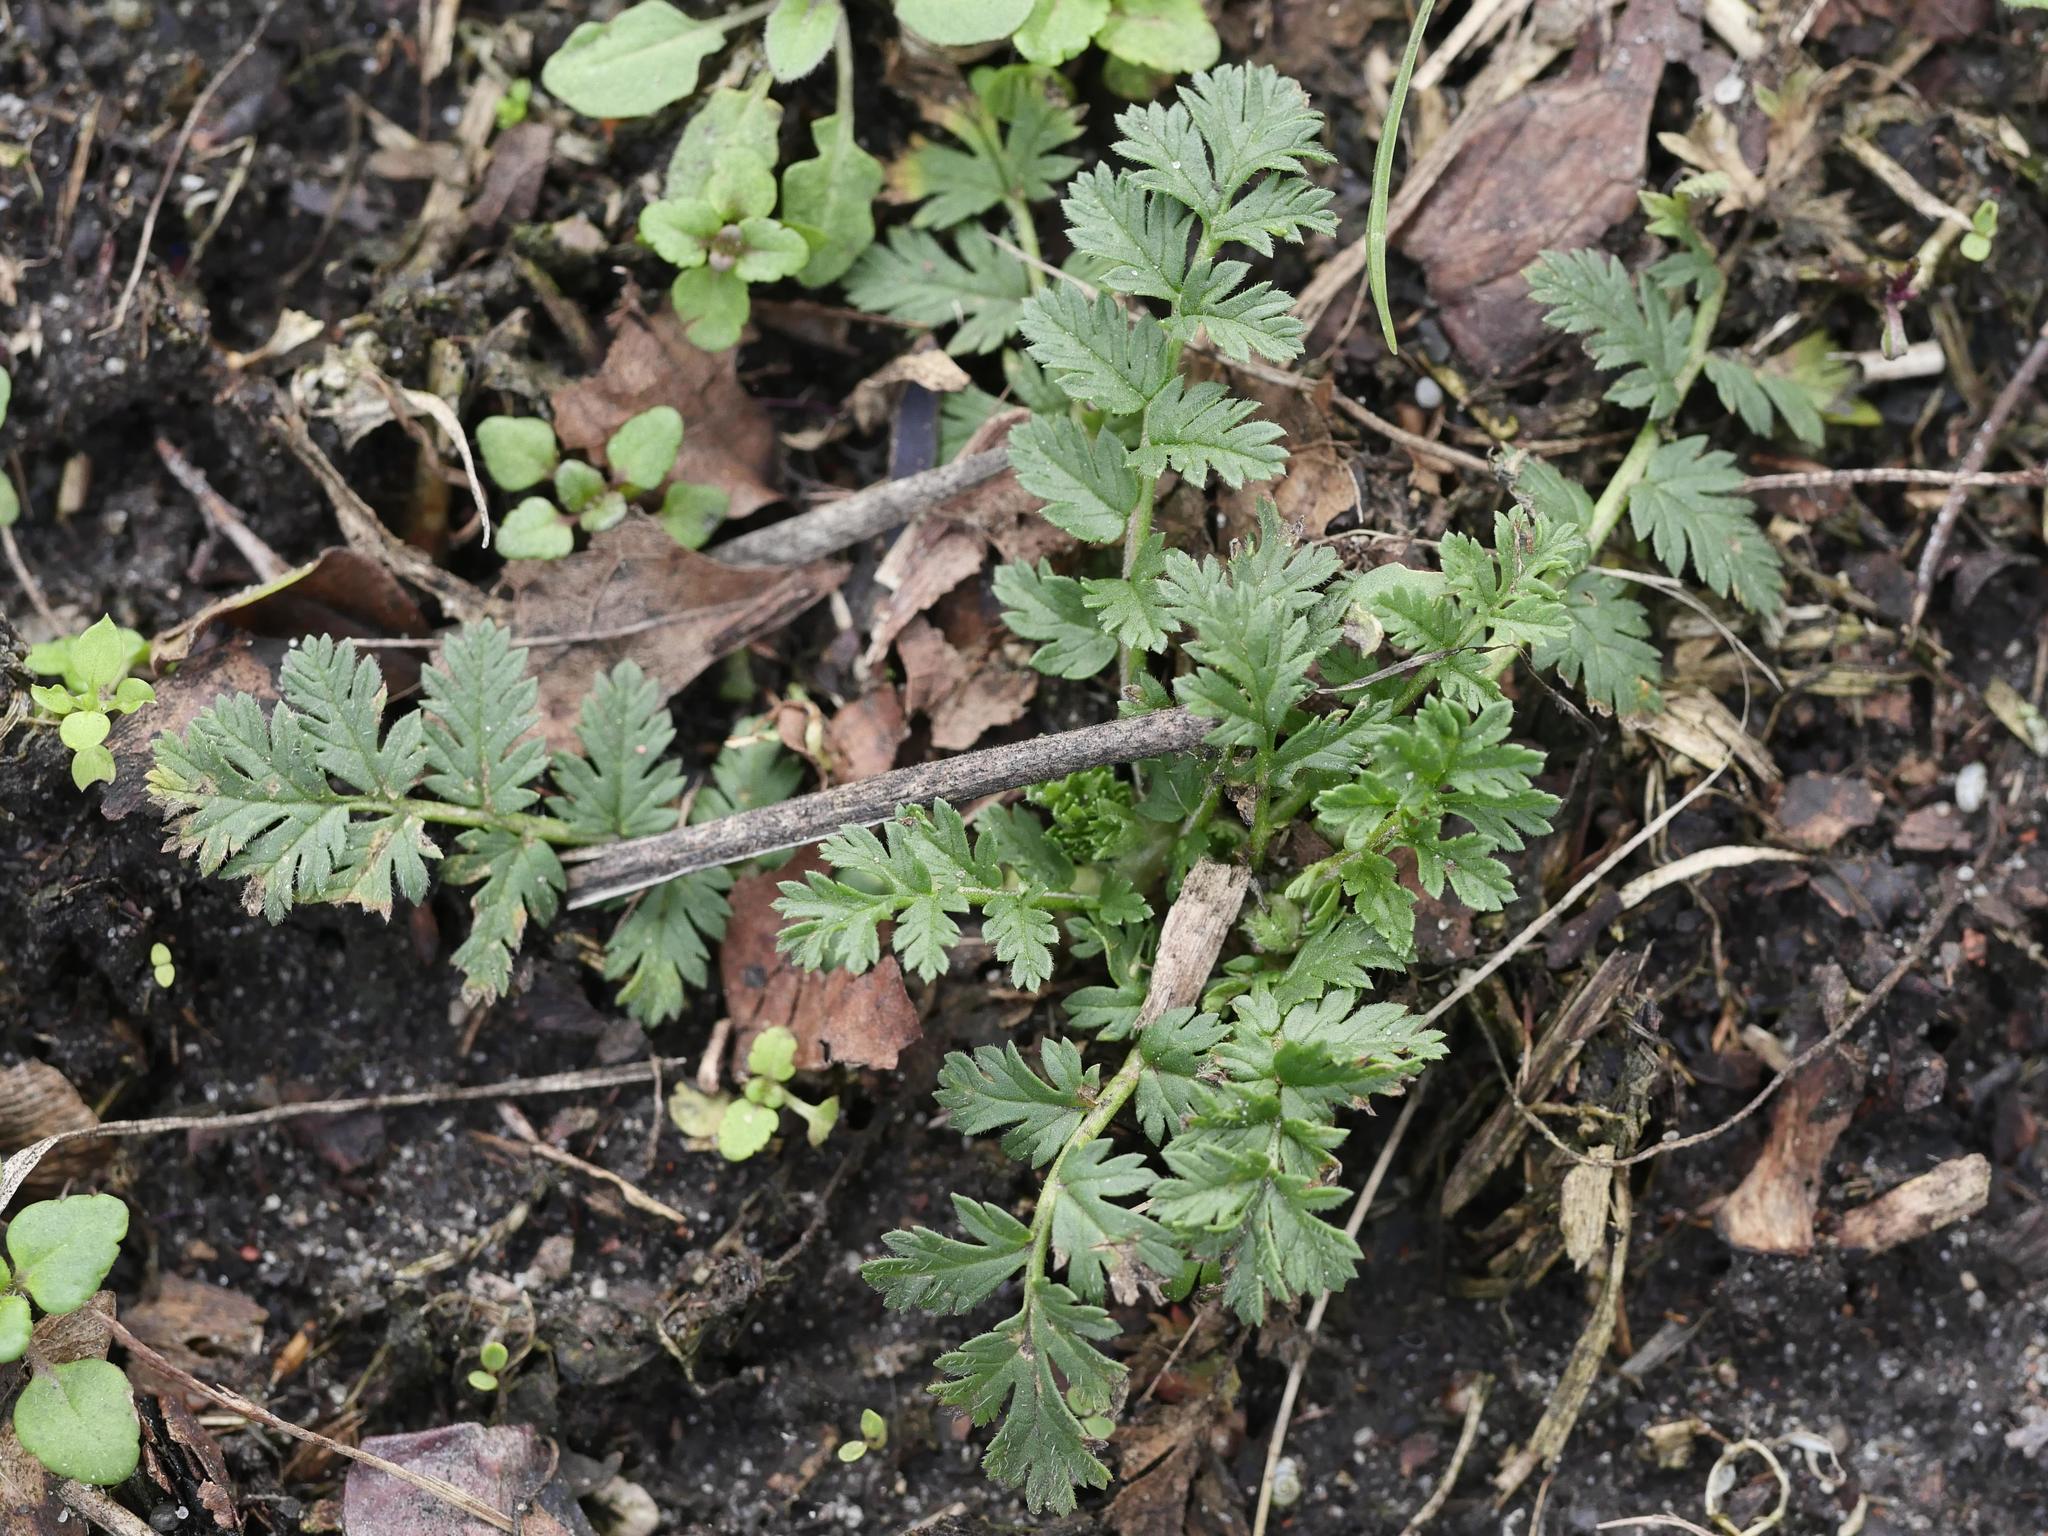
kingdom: Plantae
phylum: Tracheophyta
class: Magnoliopsida
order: Geraniales
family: Geraniaceae
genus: Erodium
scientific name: Erodium cicutarium
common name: Common stork's-bill
